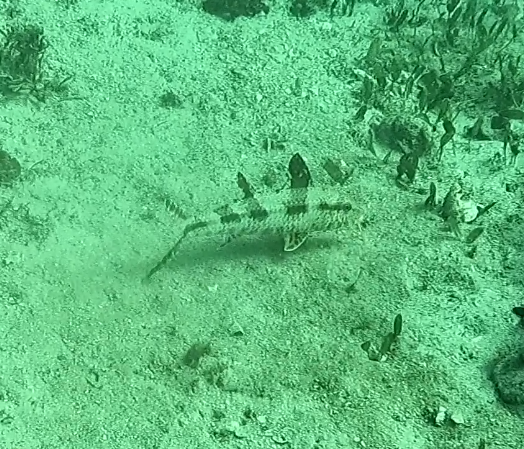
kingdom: Animalia
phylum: Chordata
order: Perciformes
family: Mullidae
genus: Upeneus
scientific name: Upeneus tragula
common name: Freckled goatfish
